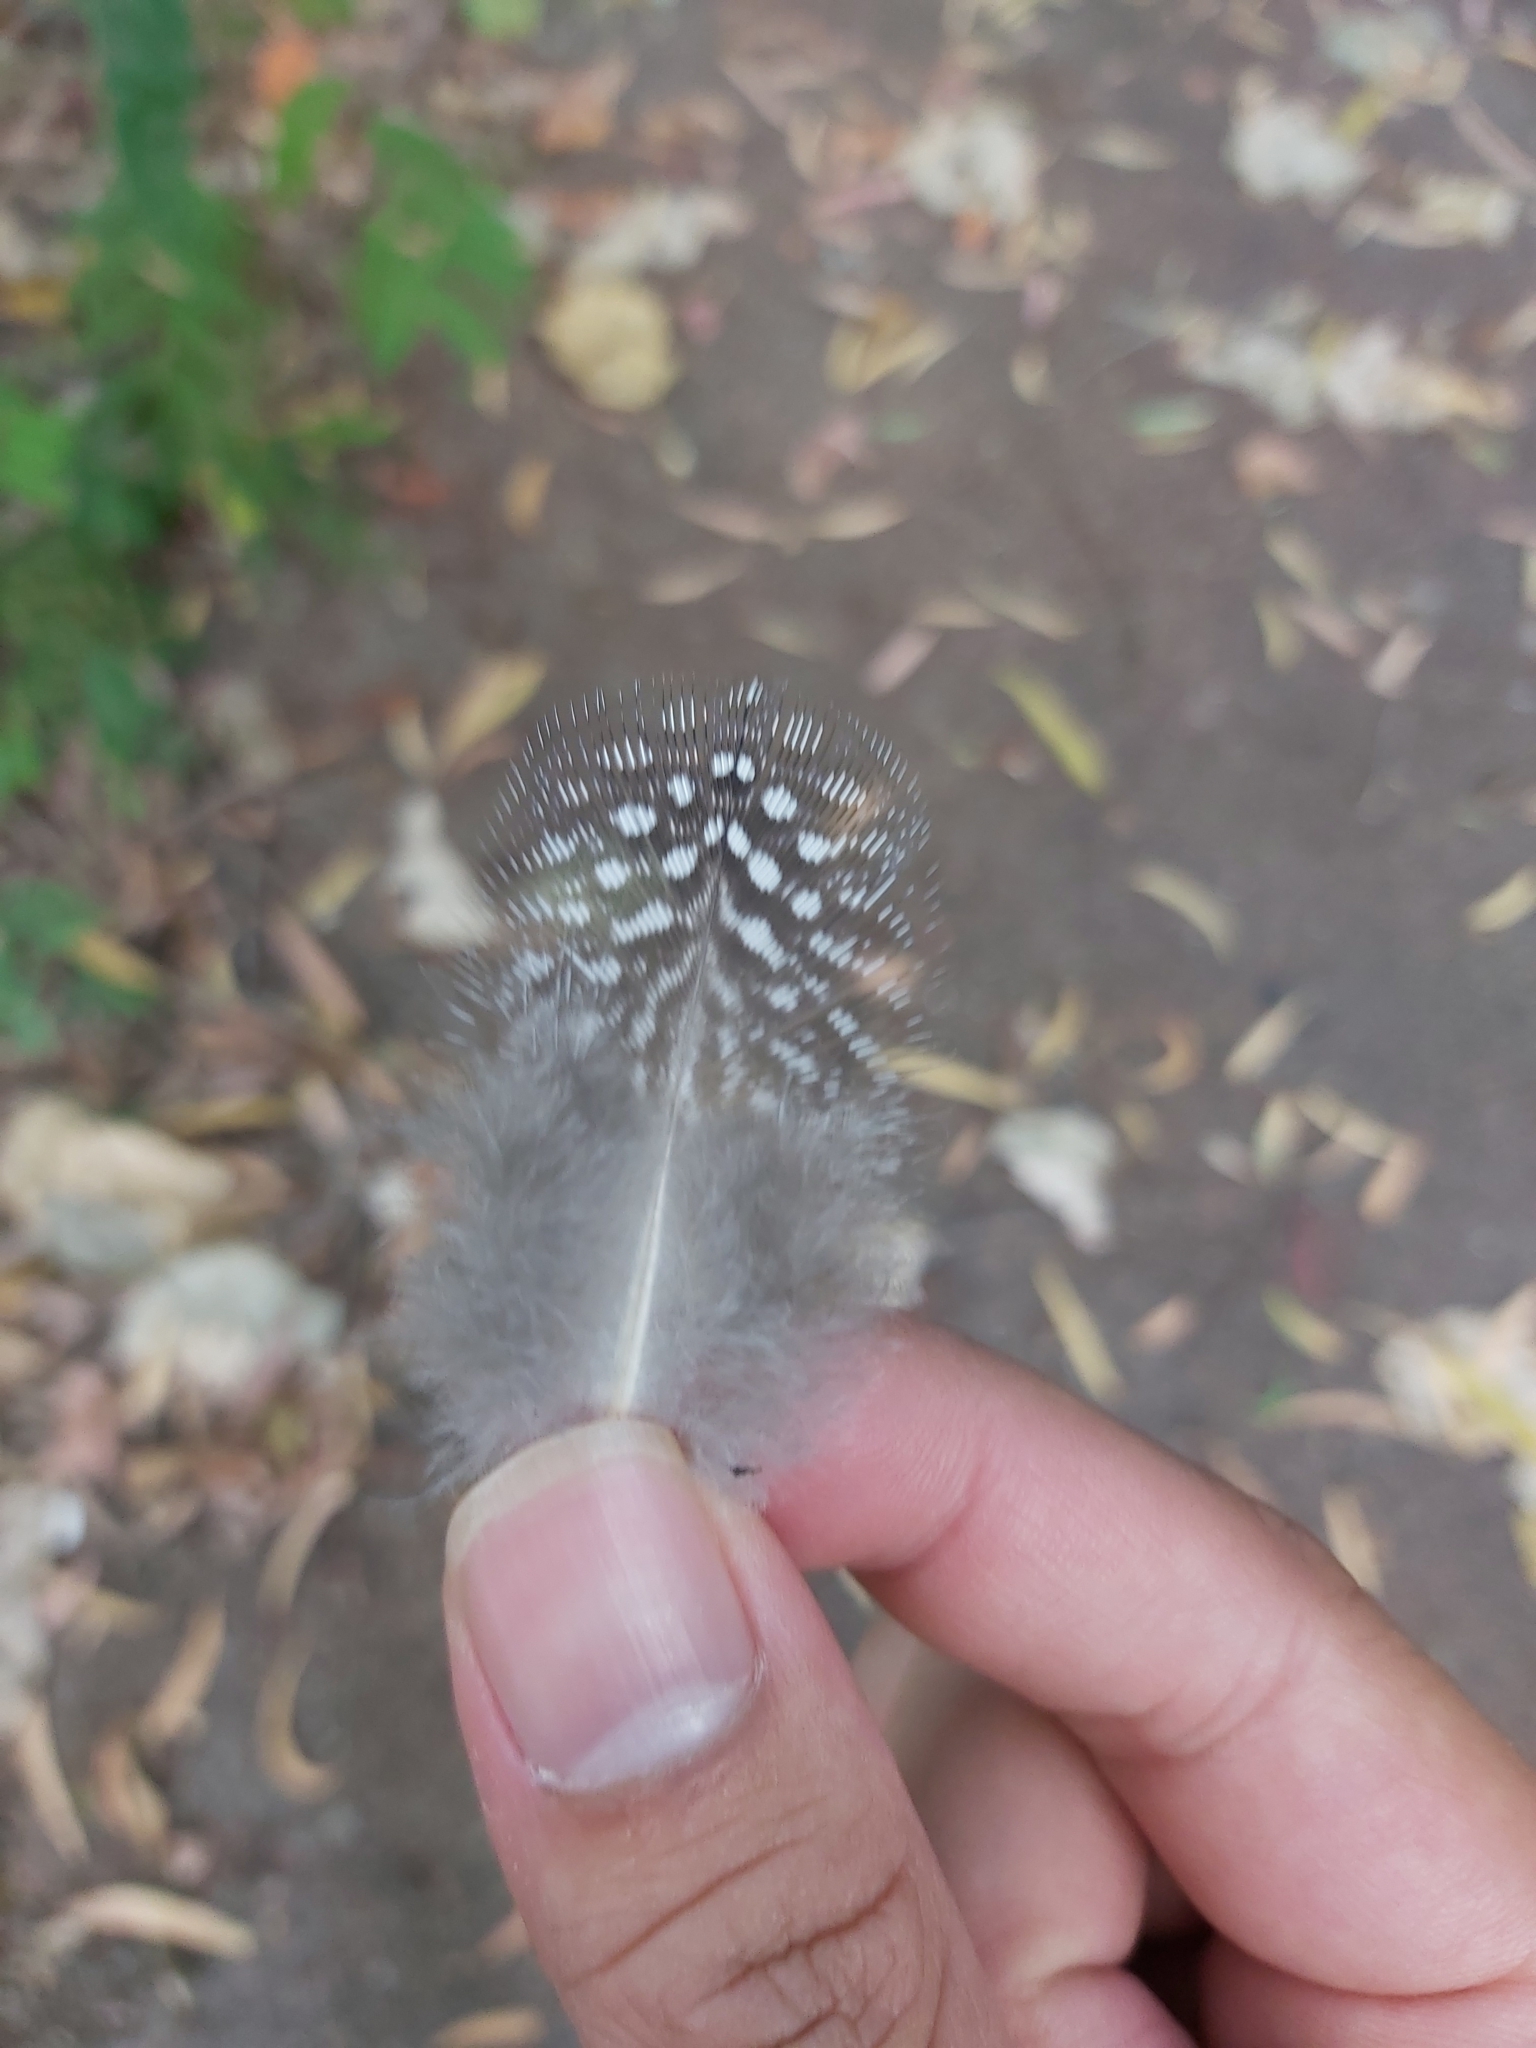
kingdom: Animalia
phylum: Chordata
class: Aves
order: Galliformes
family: Numididae
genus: Numida
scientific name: Numida meleagris
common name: Helmeted guineafowl
